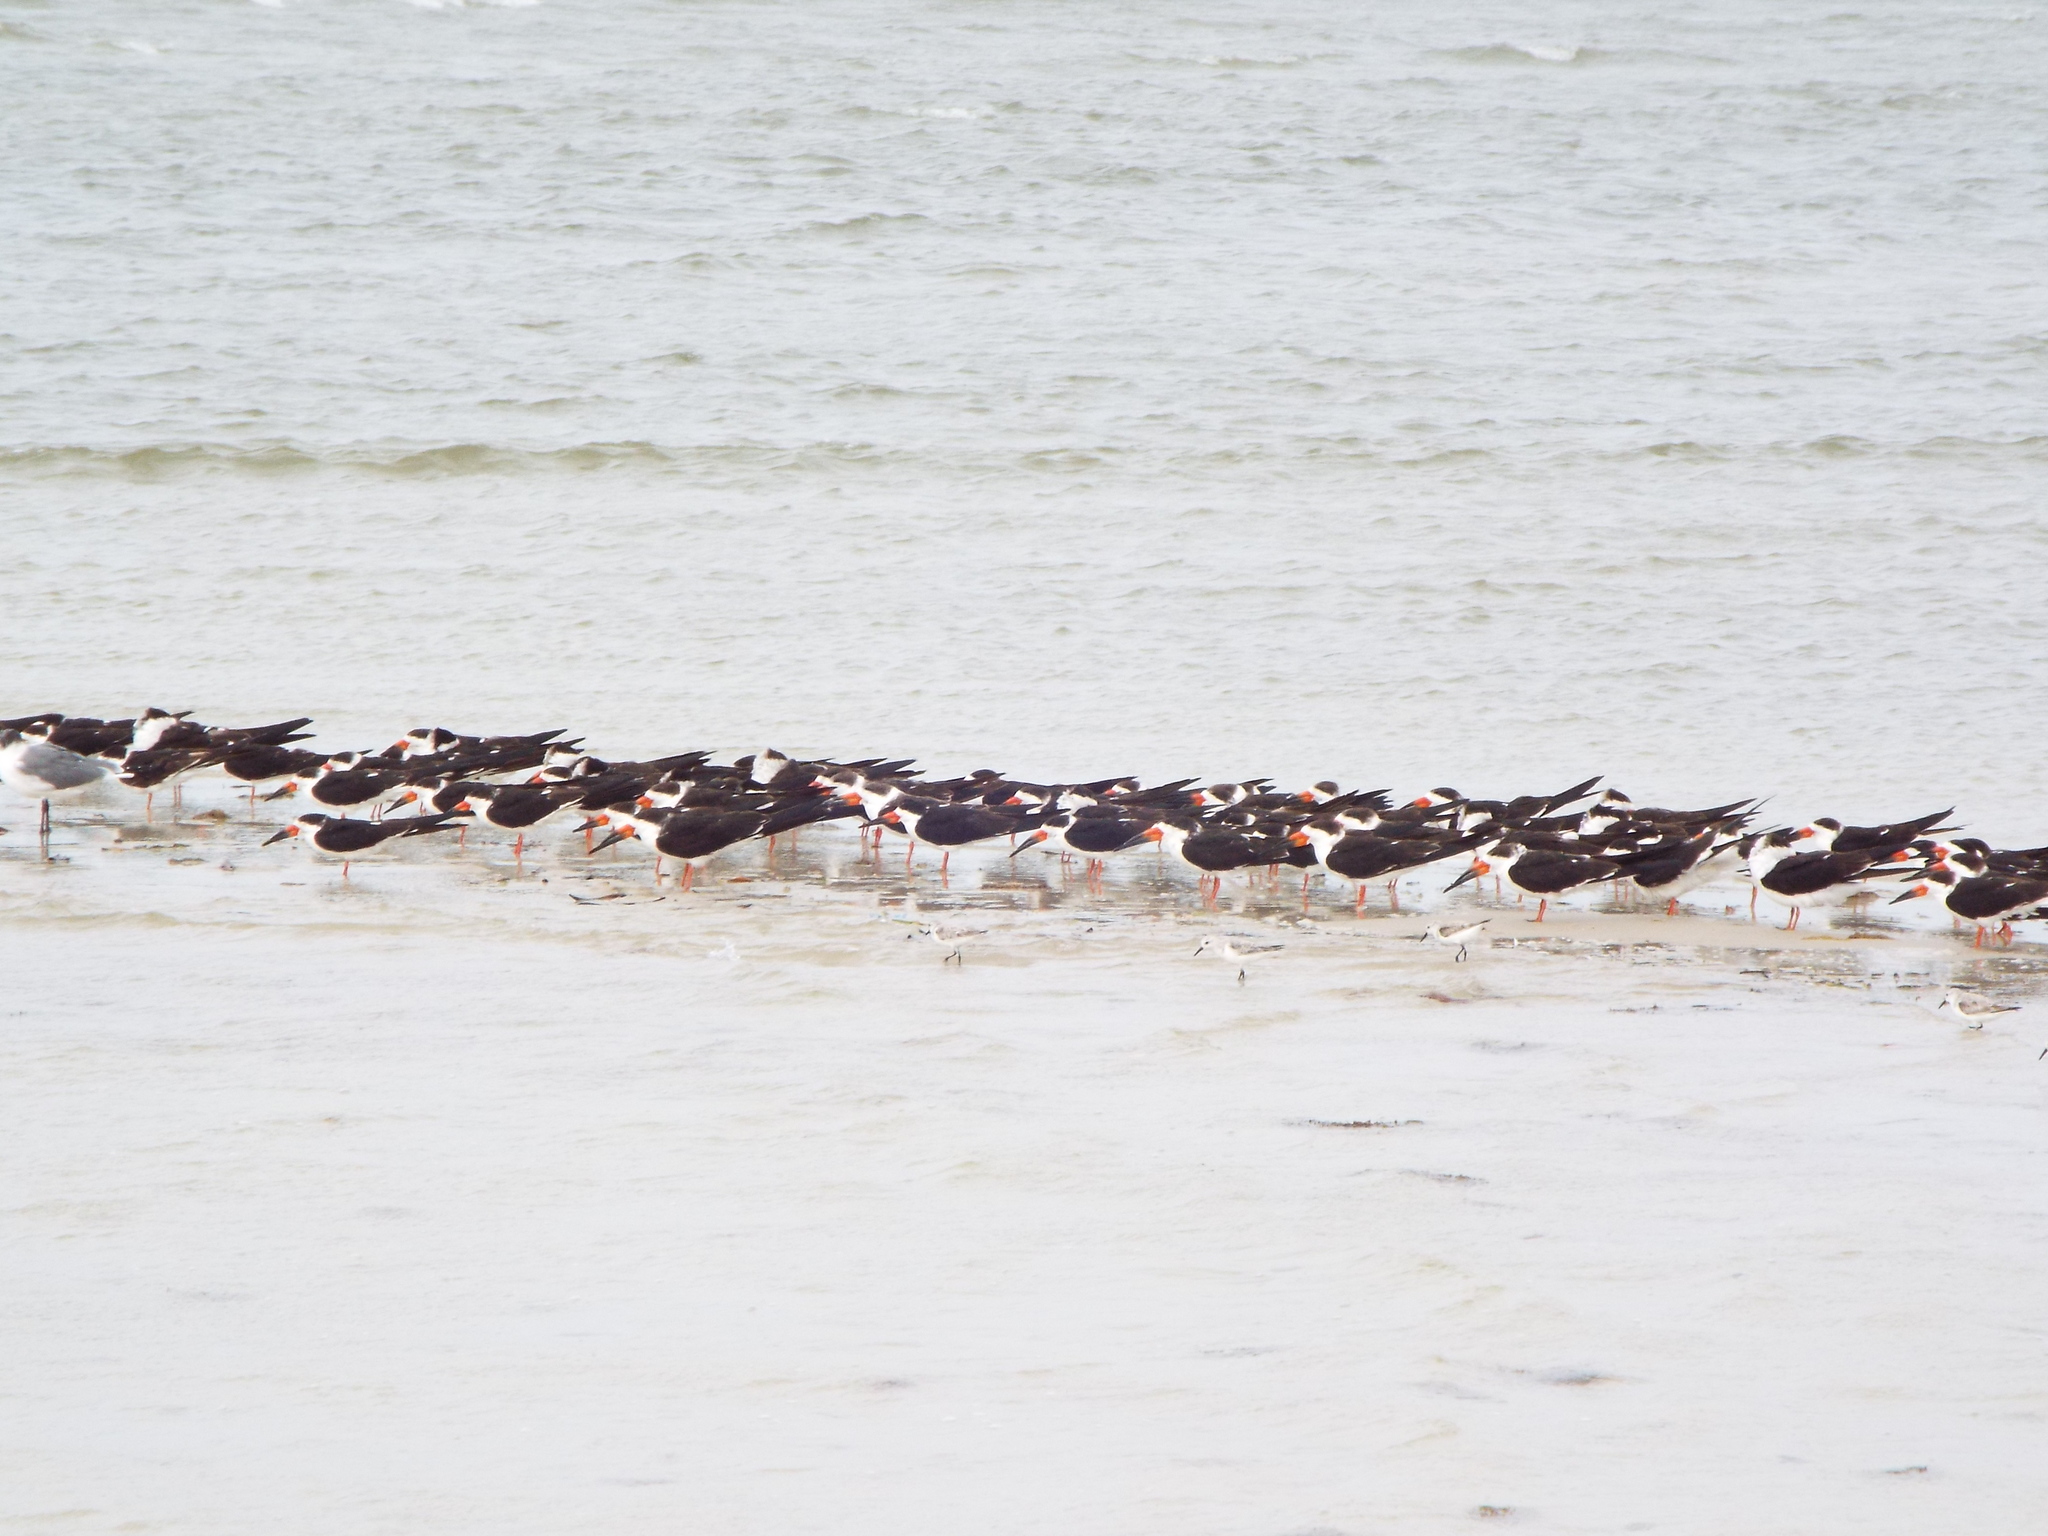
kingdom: Animalia
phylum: Chordata
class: Aves
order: Charadriiformes
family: Laridae
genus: Rynchops
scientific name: Rynchops niger
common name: Black skimmer
